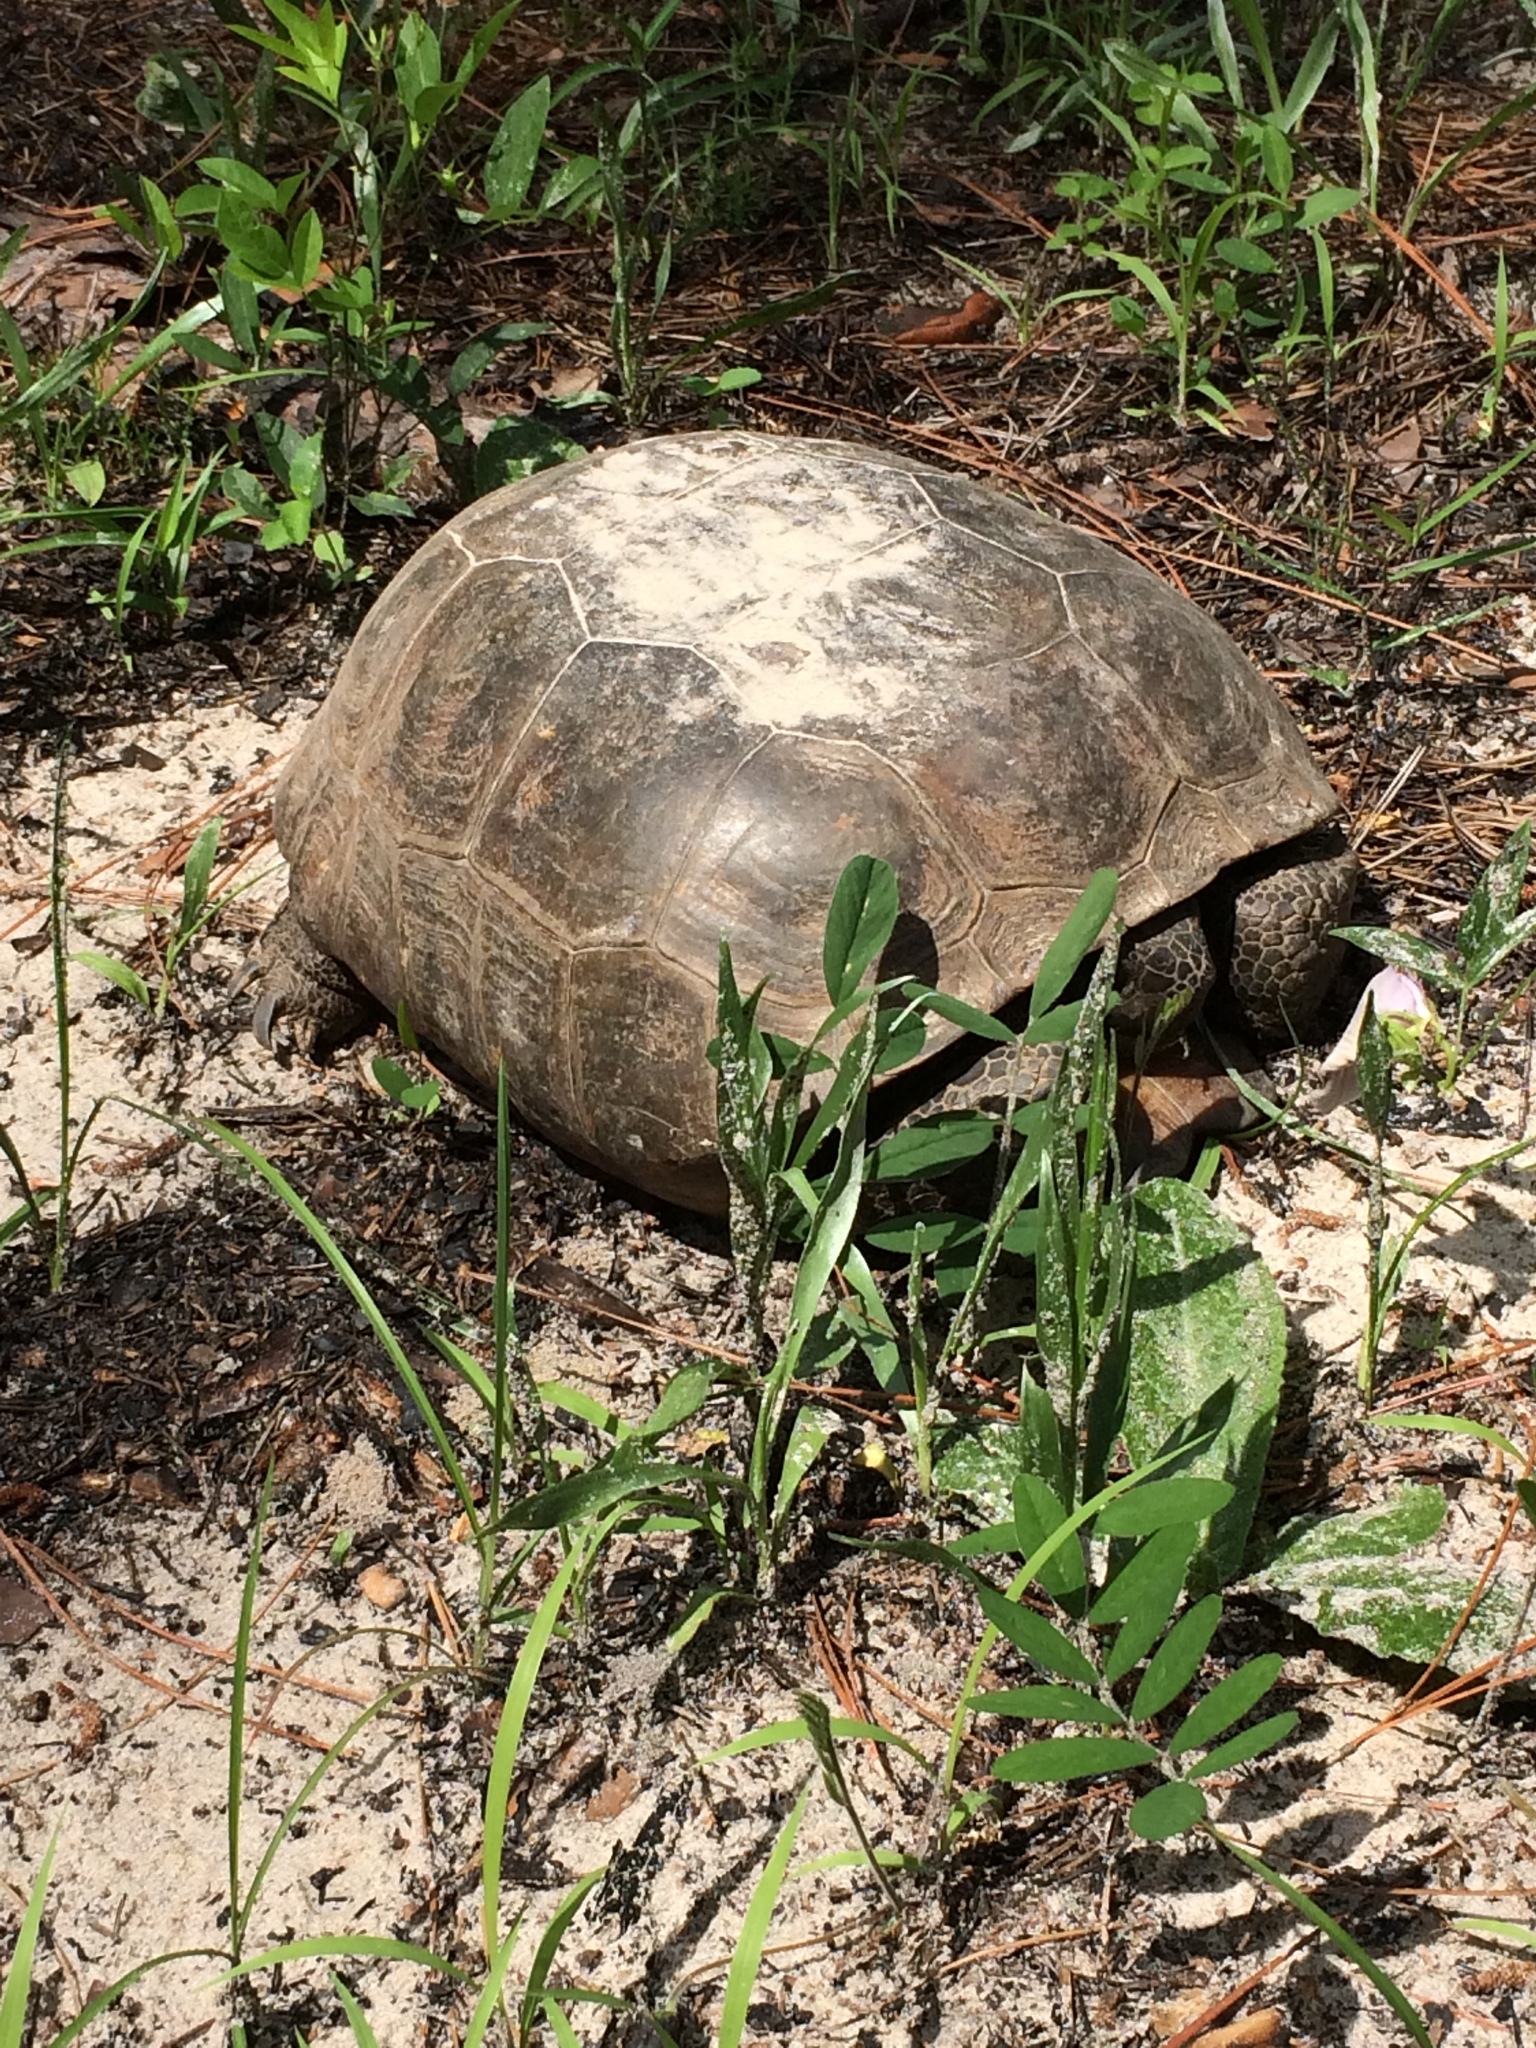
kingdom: Animalia
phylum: Chordata
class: Testudines
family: Testudinidae
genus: Gopherus
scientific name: Gopherus polyphemus
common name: Florida gopher tortoise
